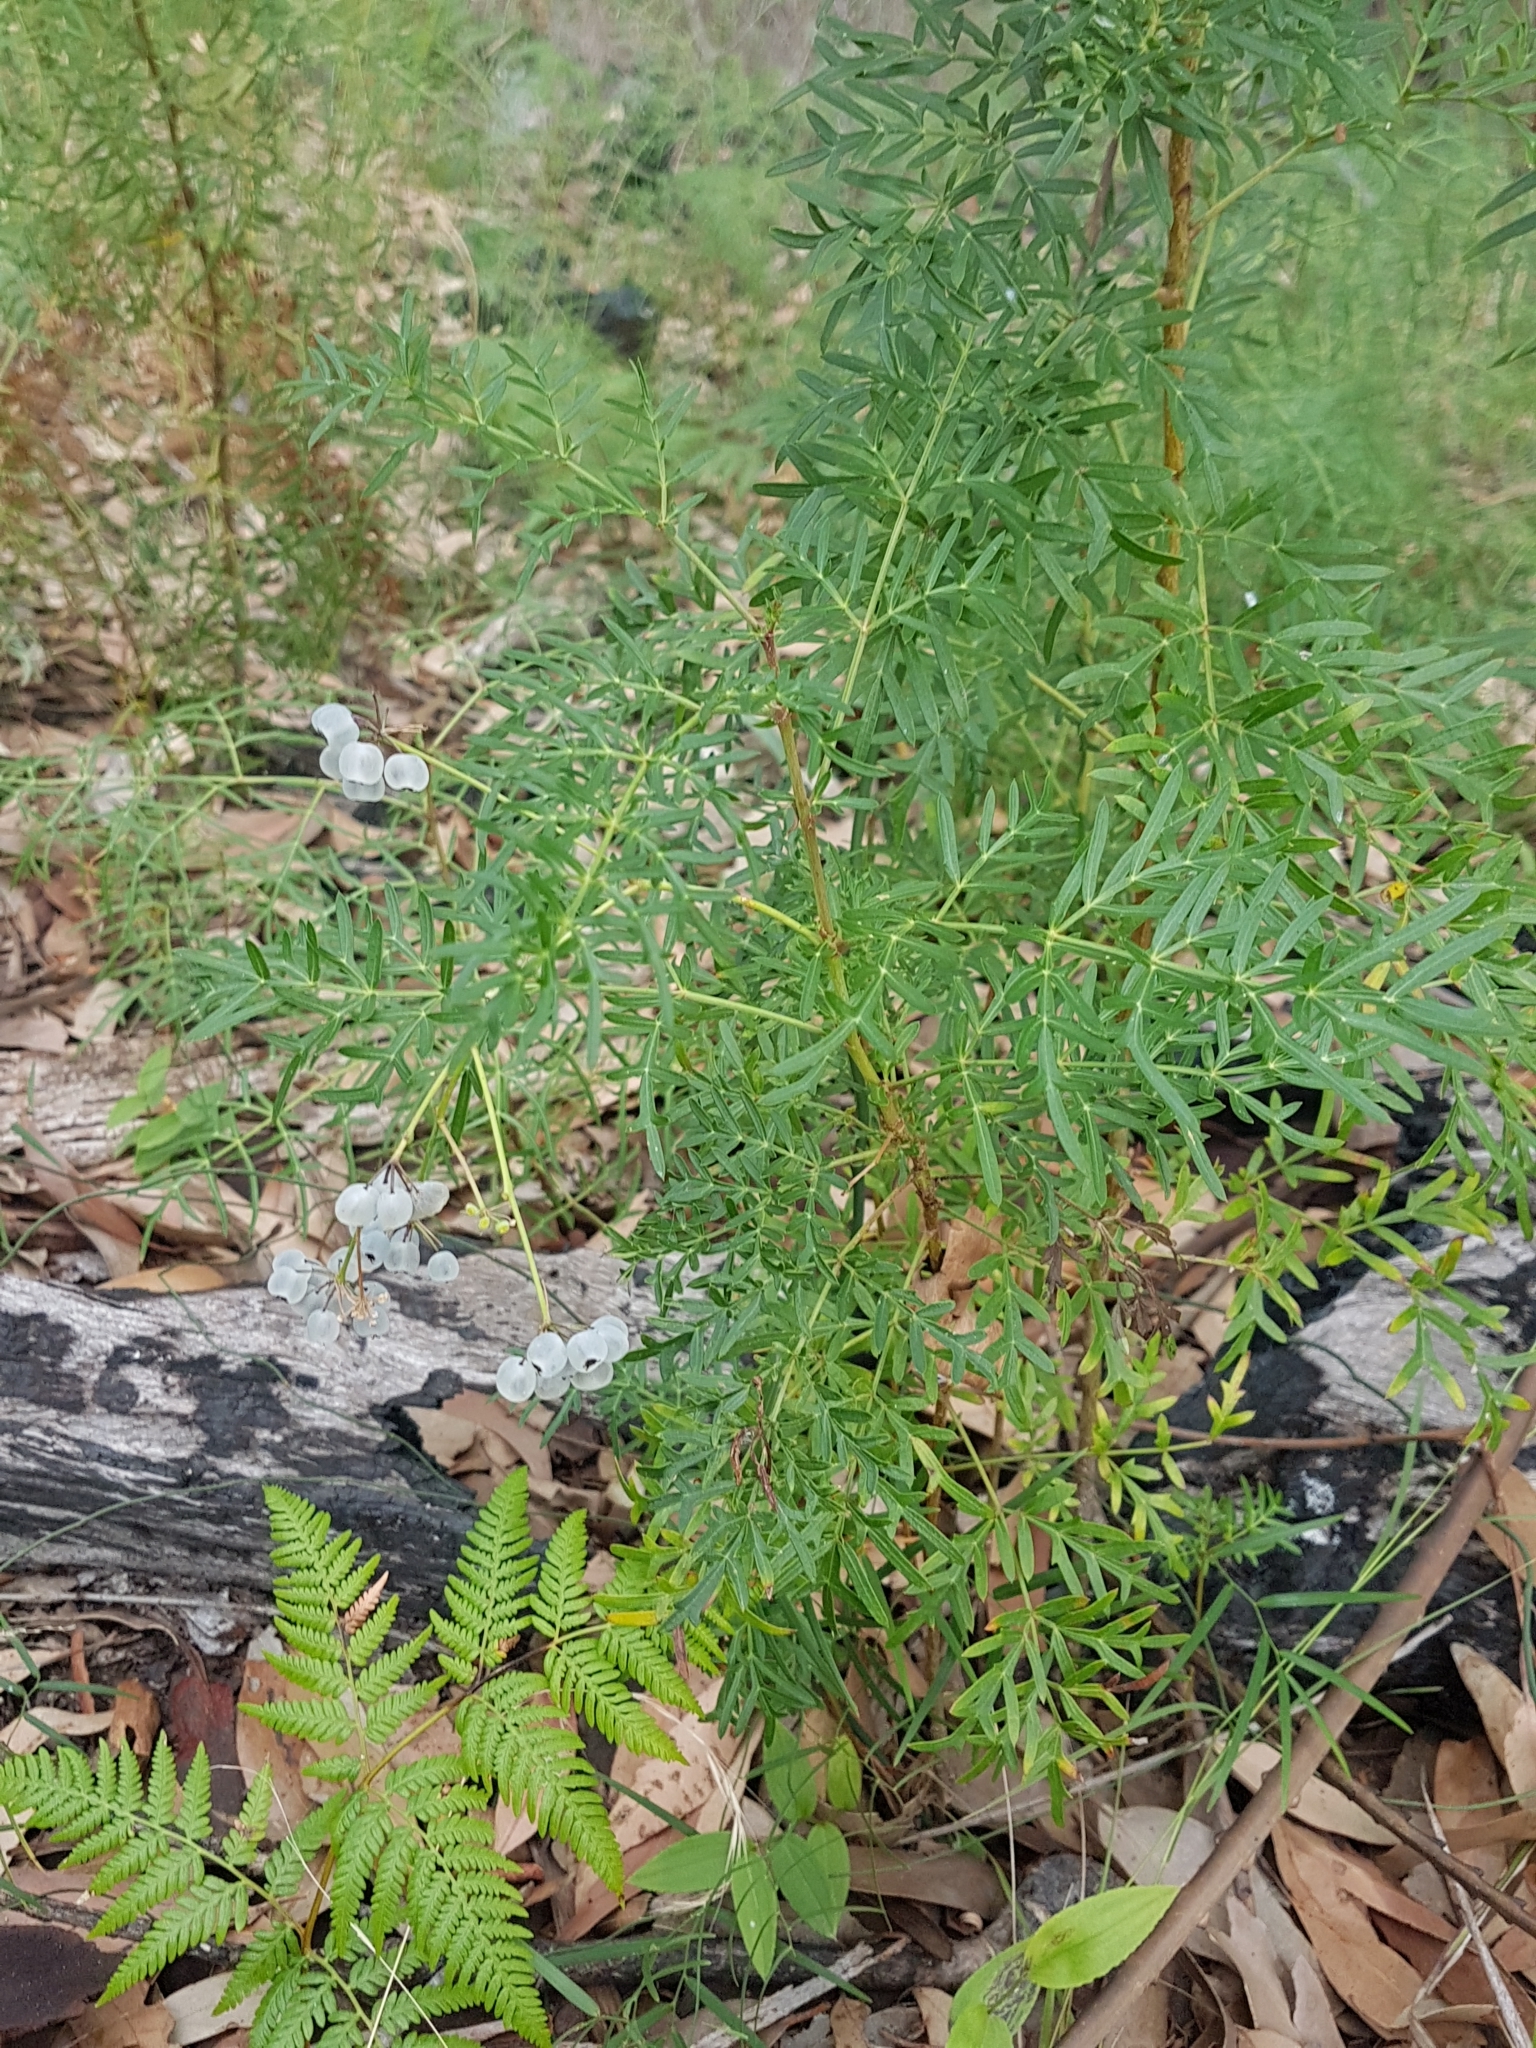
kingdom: Plantae
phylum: Tracheophyta
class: Magnoliopsida
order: Apiales
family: Araliaceae
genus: Polyscias
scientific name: Polyscias sambucifolia
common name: Elderberry-ash
